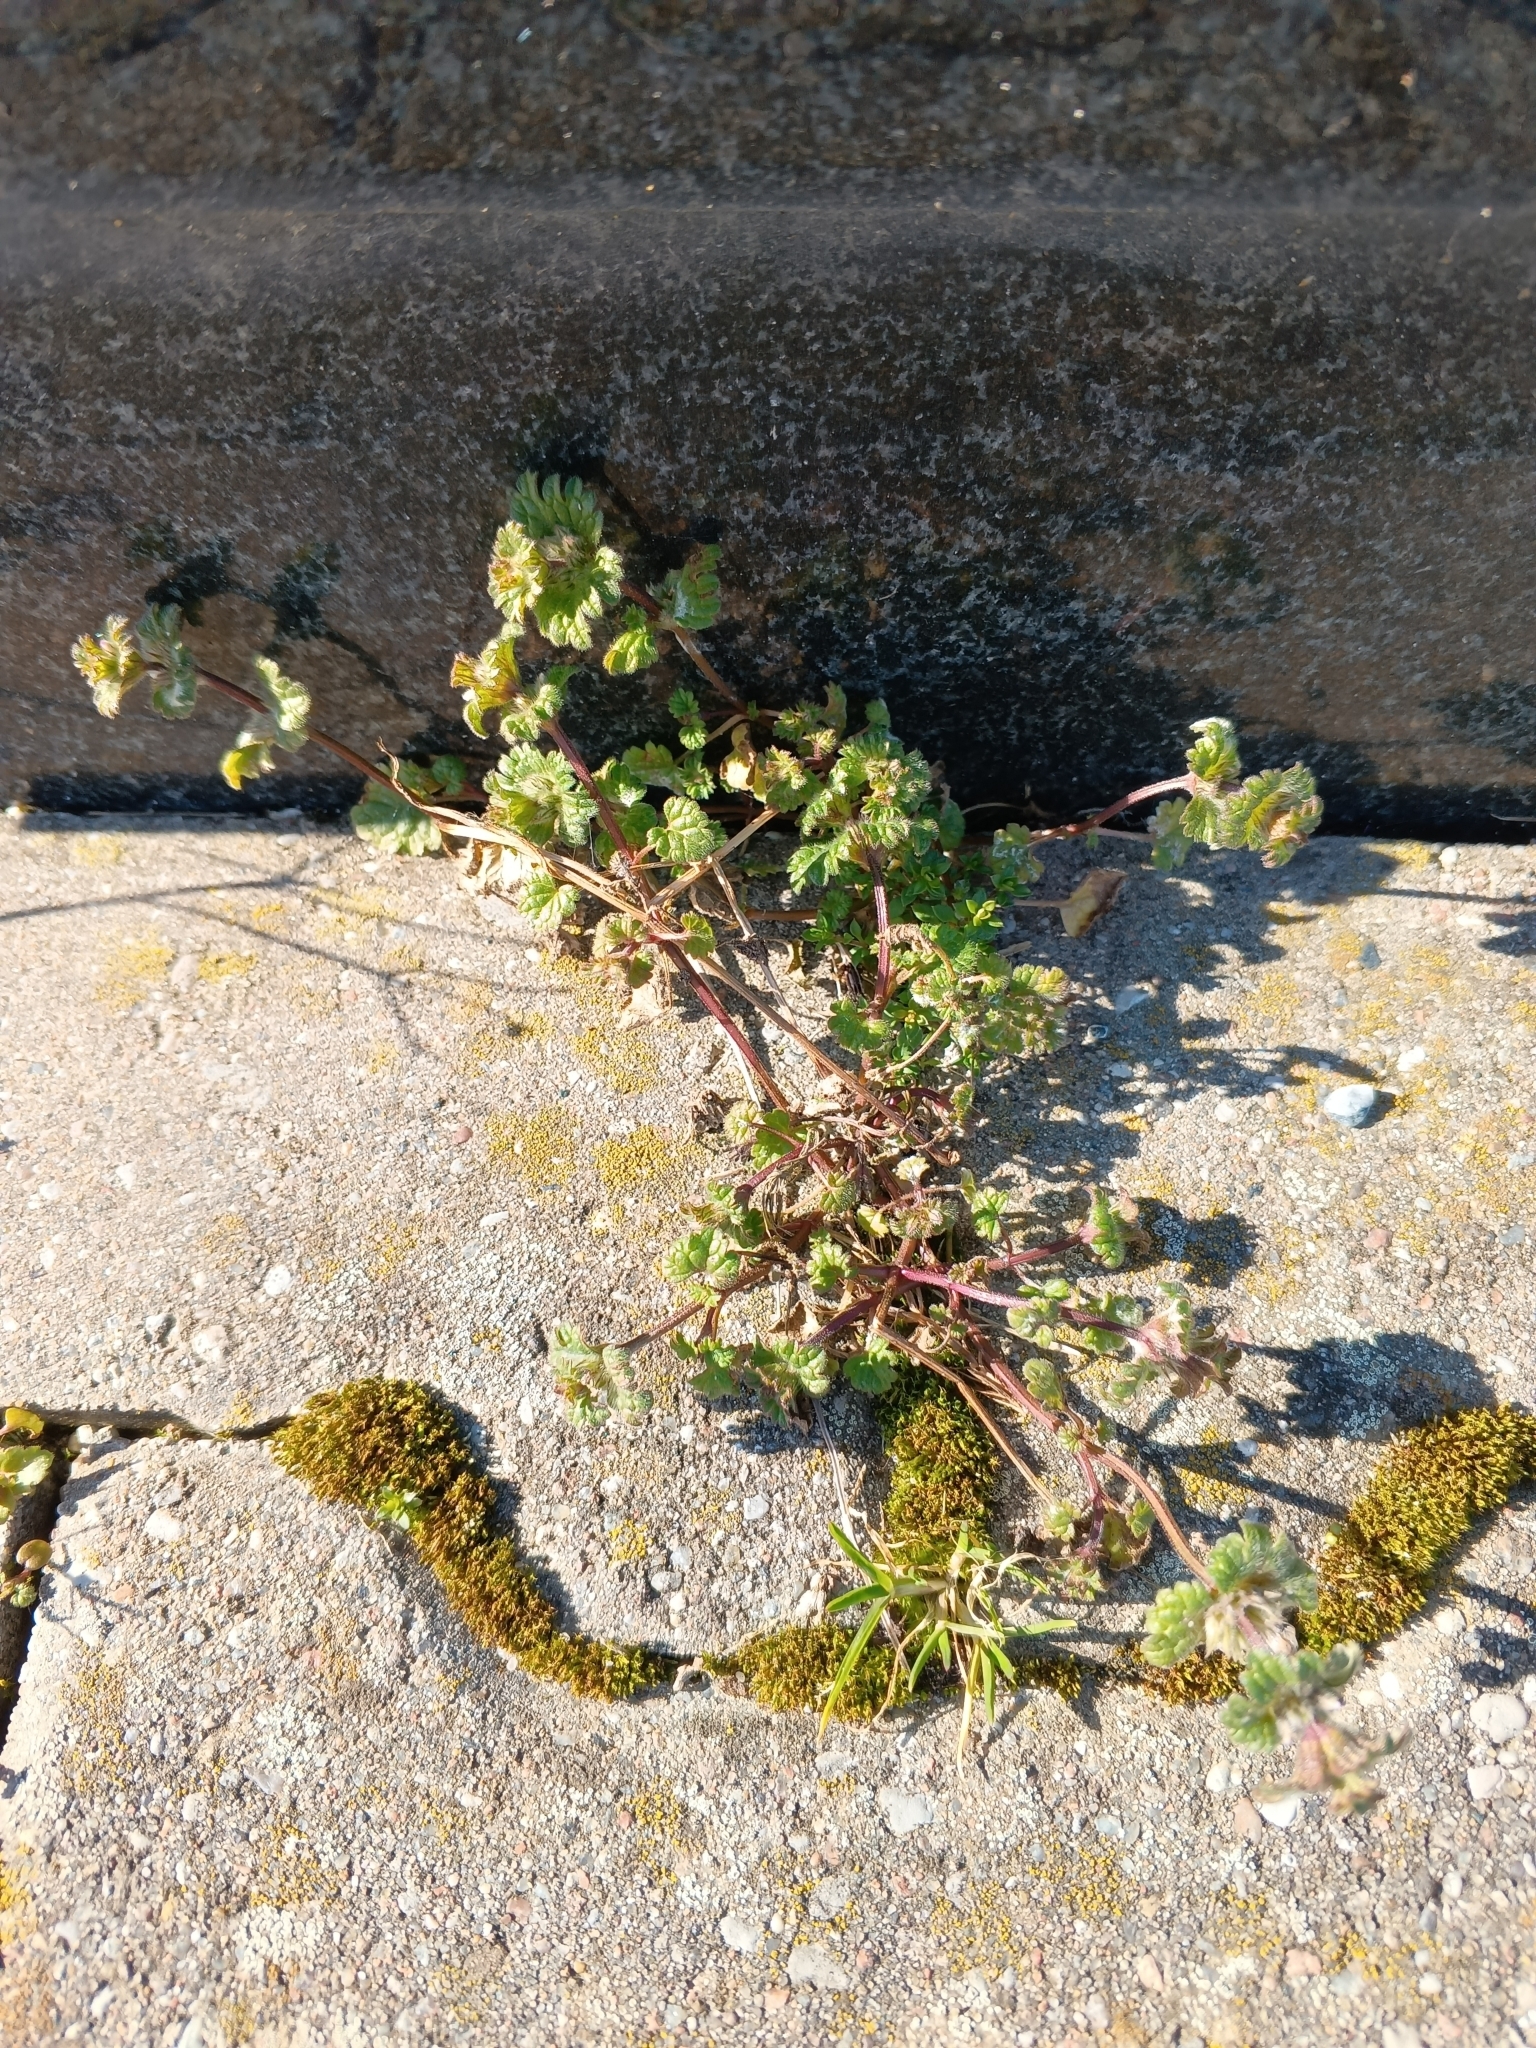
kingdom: Plantae
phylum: Tracheophyta
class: Magnoliopsida
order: Lamiales
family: Lamiaceae
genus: Lamium
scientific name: Lamium amplexicaule
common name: Henbit dead-nettle
